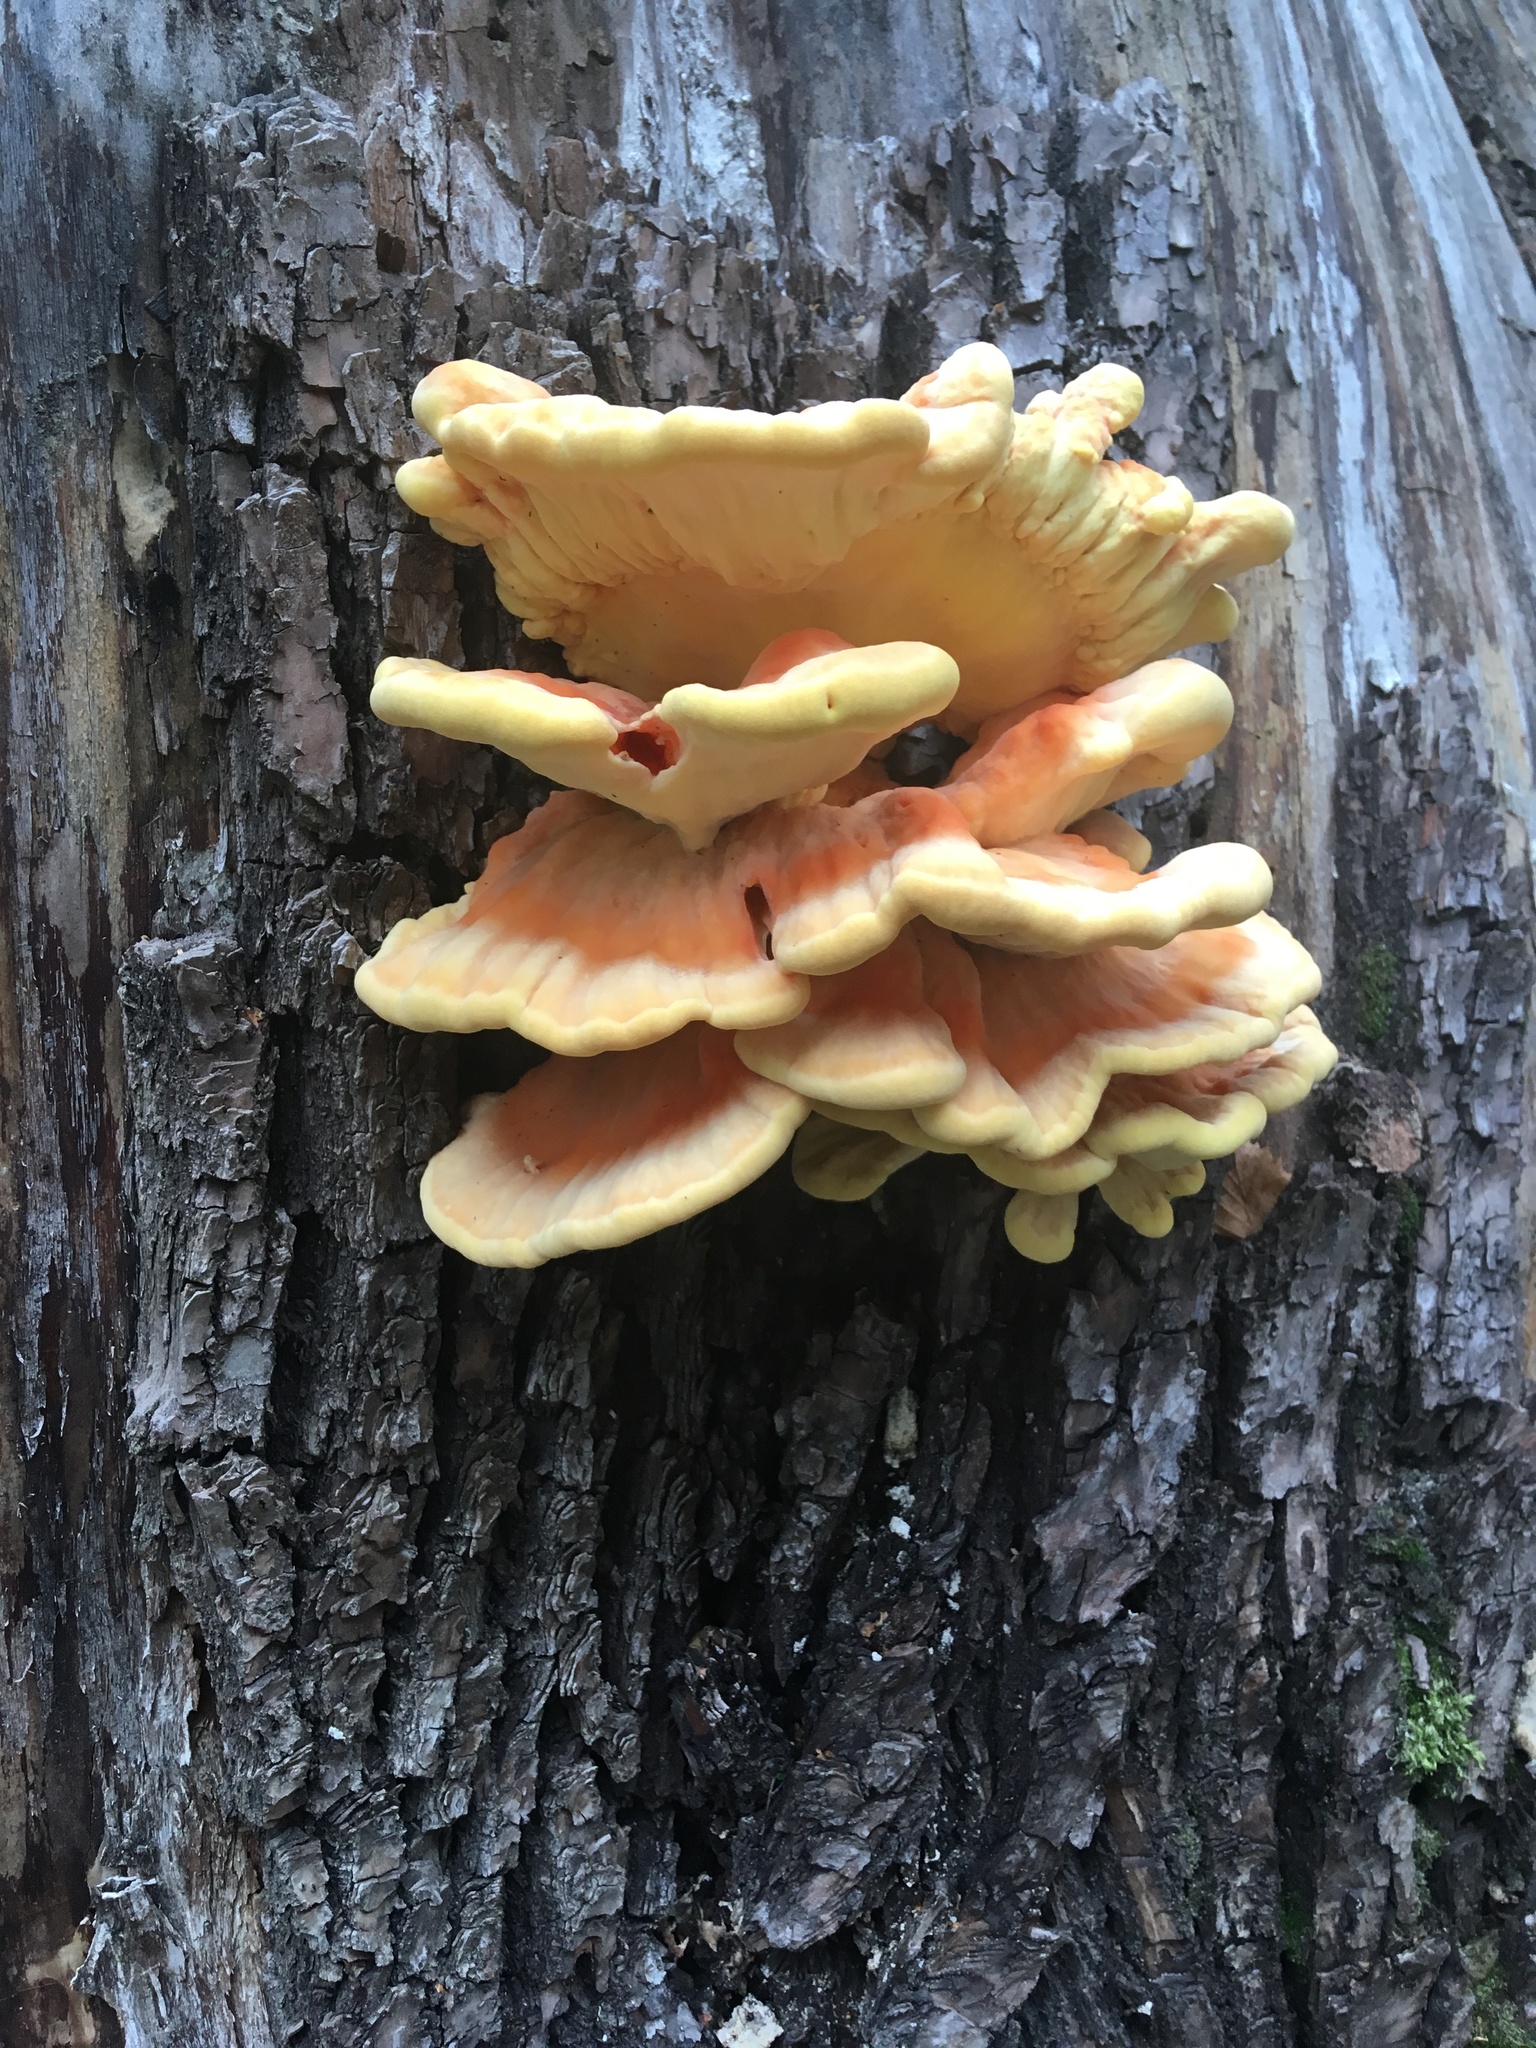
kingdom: Fungi
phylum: Basidiomycota
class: Agaricomycetes
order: Polyporales
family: Laetiporaceae
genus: Laetiporus
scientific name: Laetiporus sulphureus
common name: Chicken of the woods
